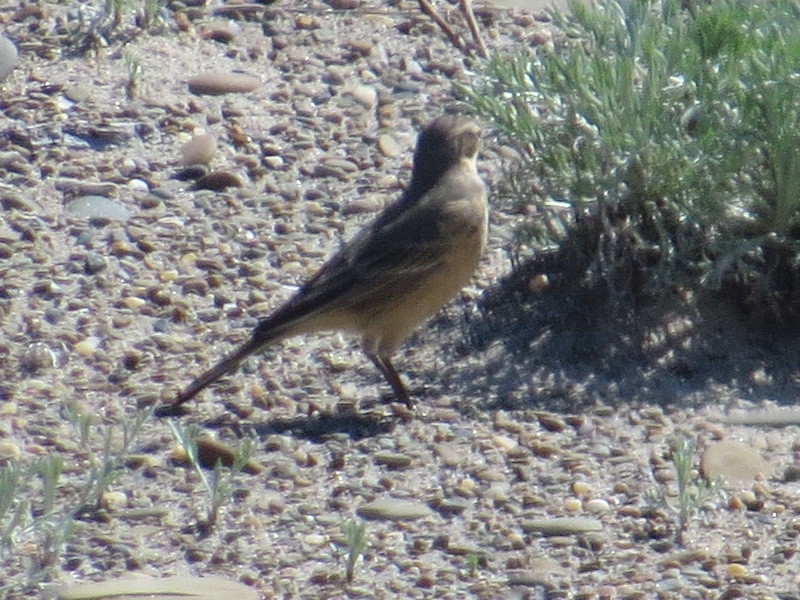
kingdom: Animalia
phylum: Chordata
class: Aves
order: Passeriformes
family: Motacillidae
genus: Anthus
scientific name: Anthus rubescens
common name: Buff-bellied pipit
